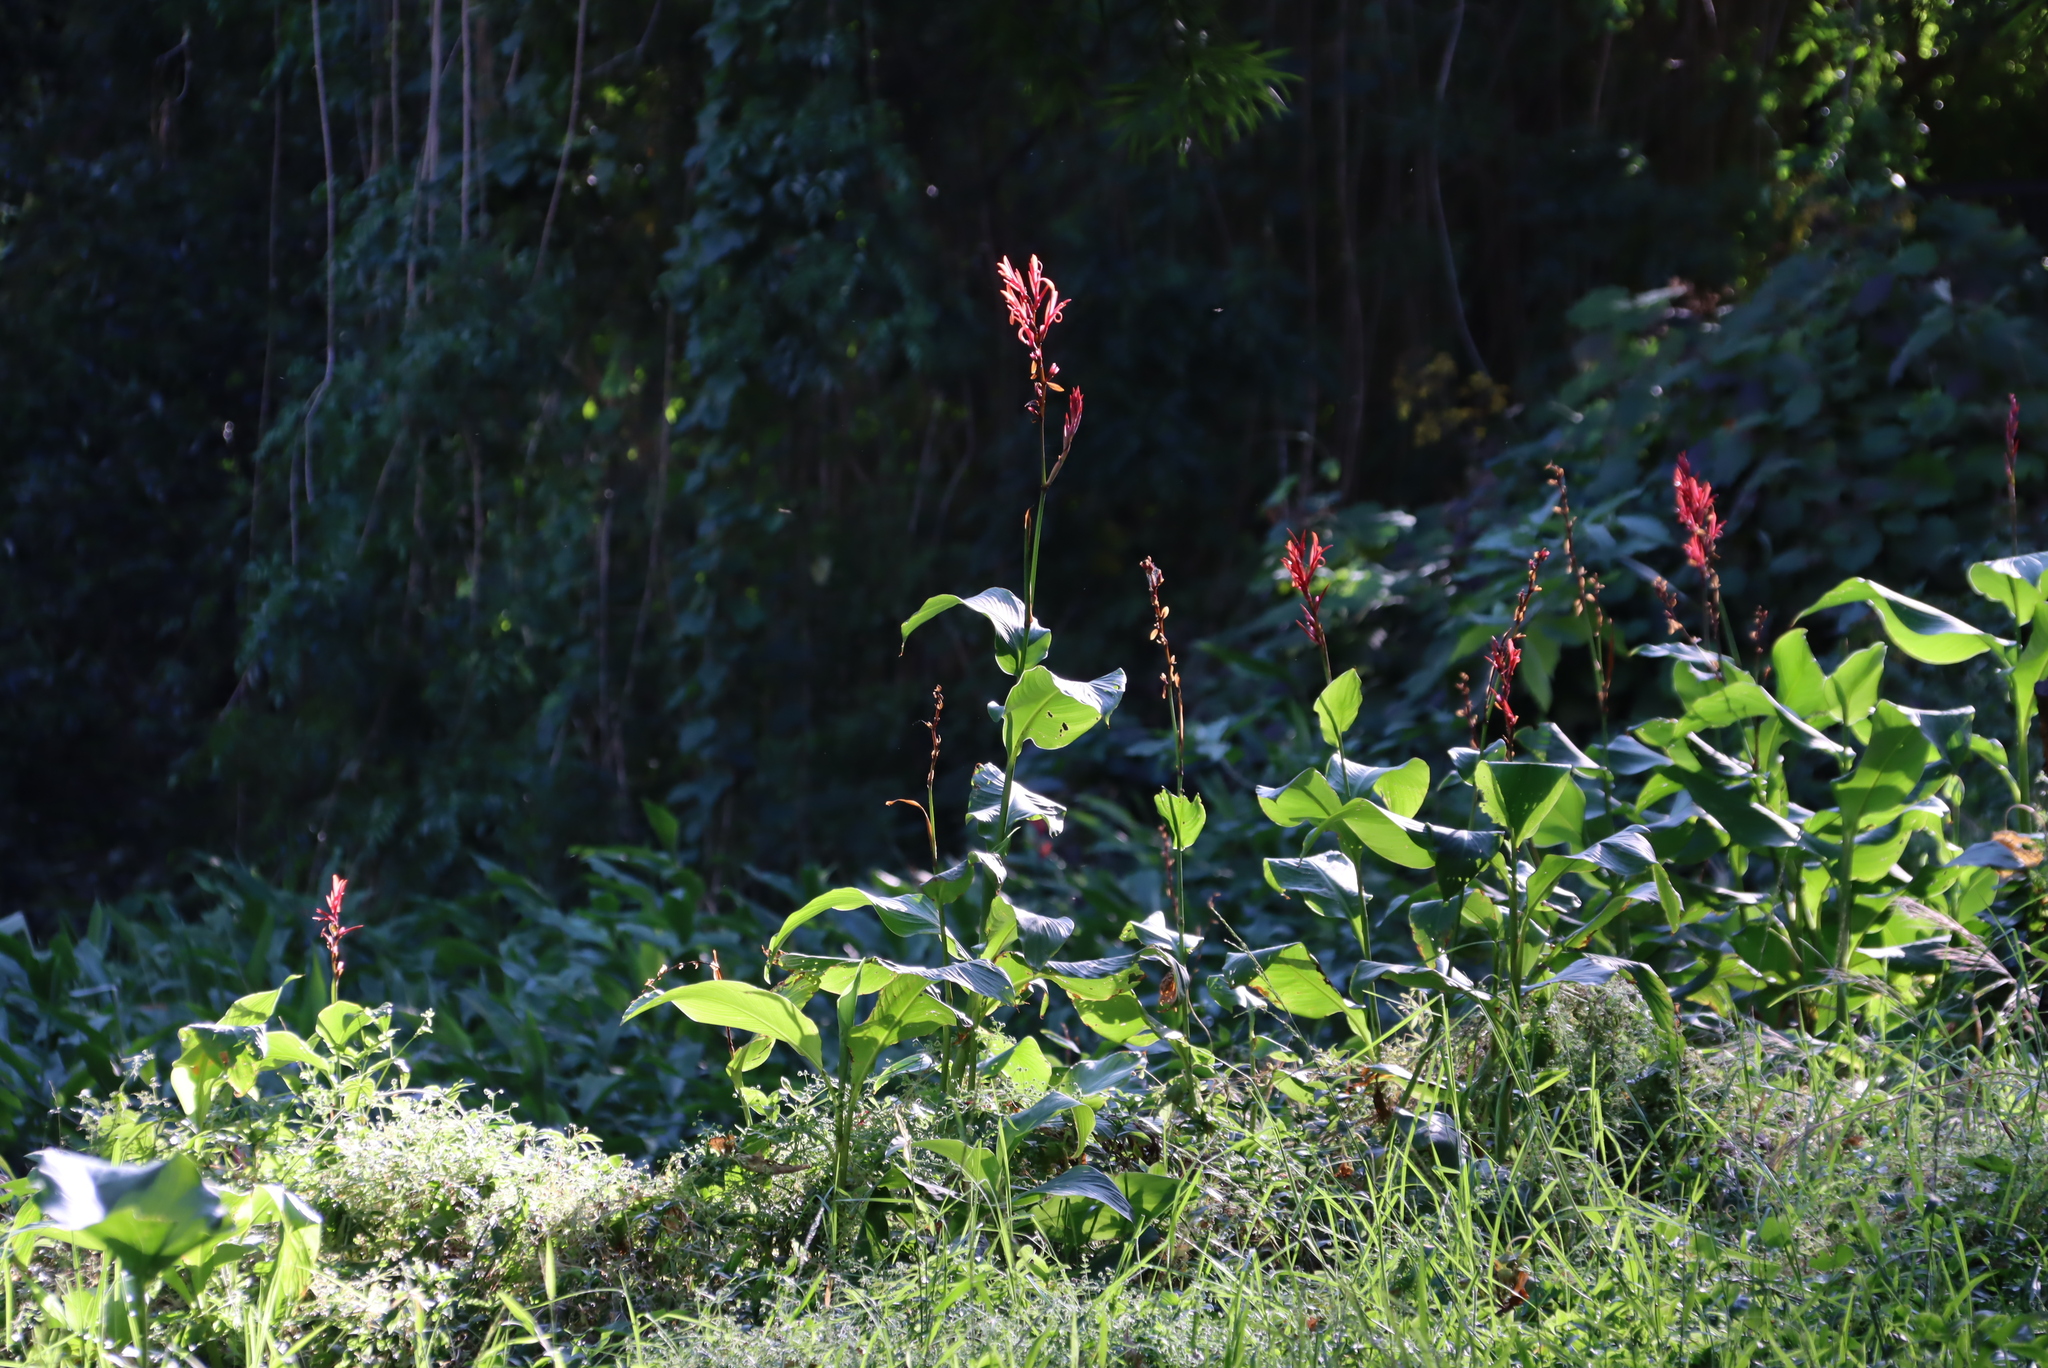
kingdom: Plantae
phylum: Tracheophyta
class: Liliopsida
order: Zingiberales
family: Cannaceae
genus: Canna
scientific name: Canna indica
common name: Indian shot
